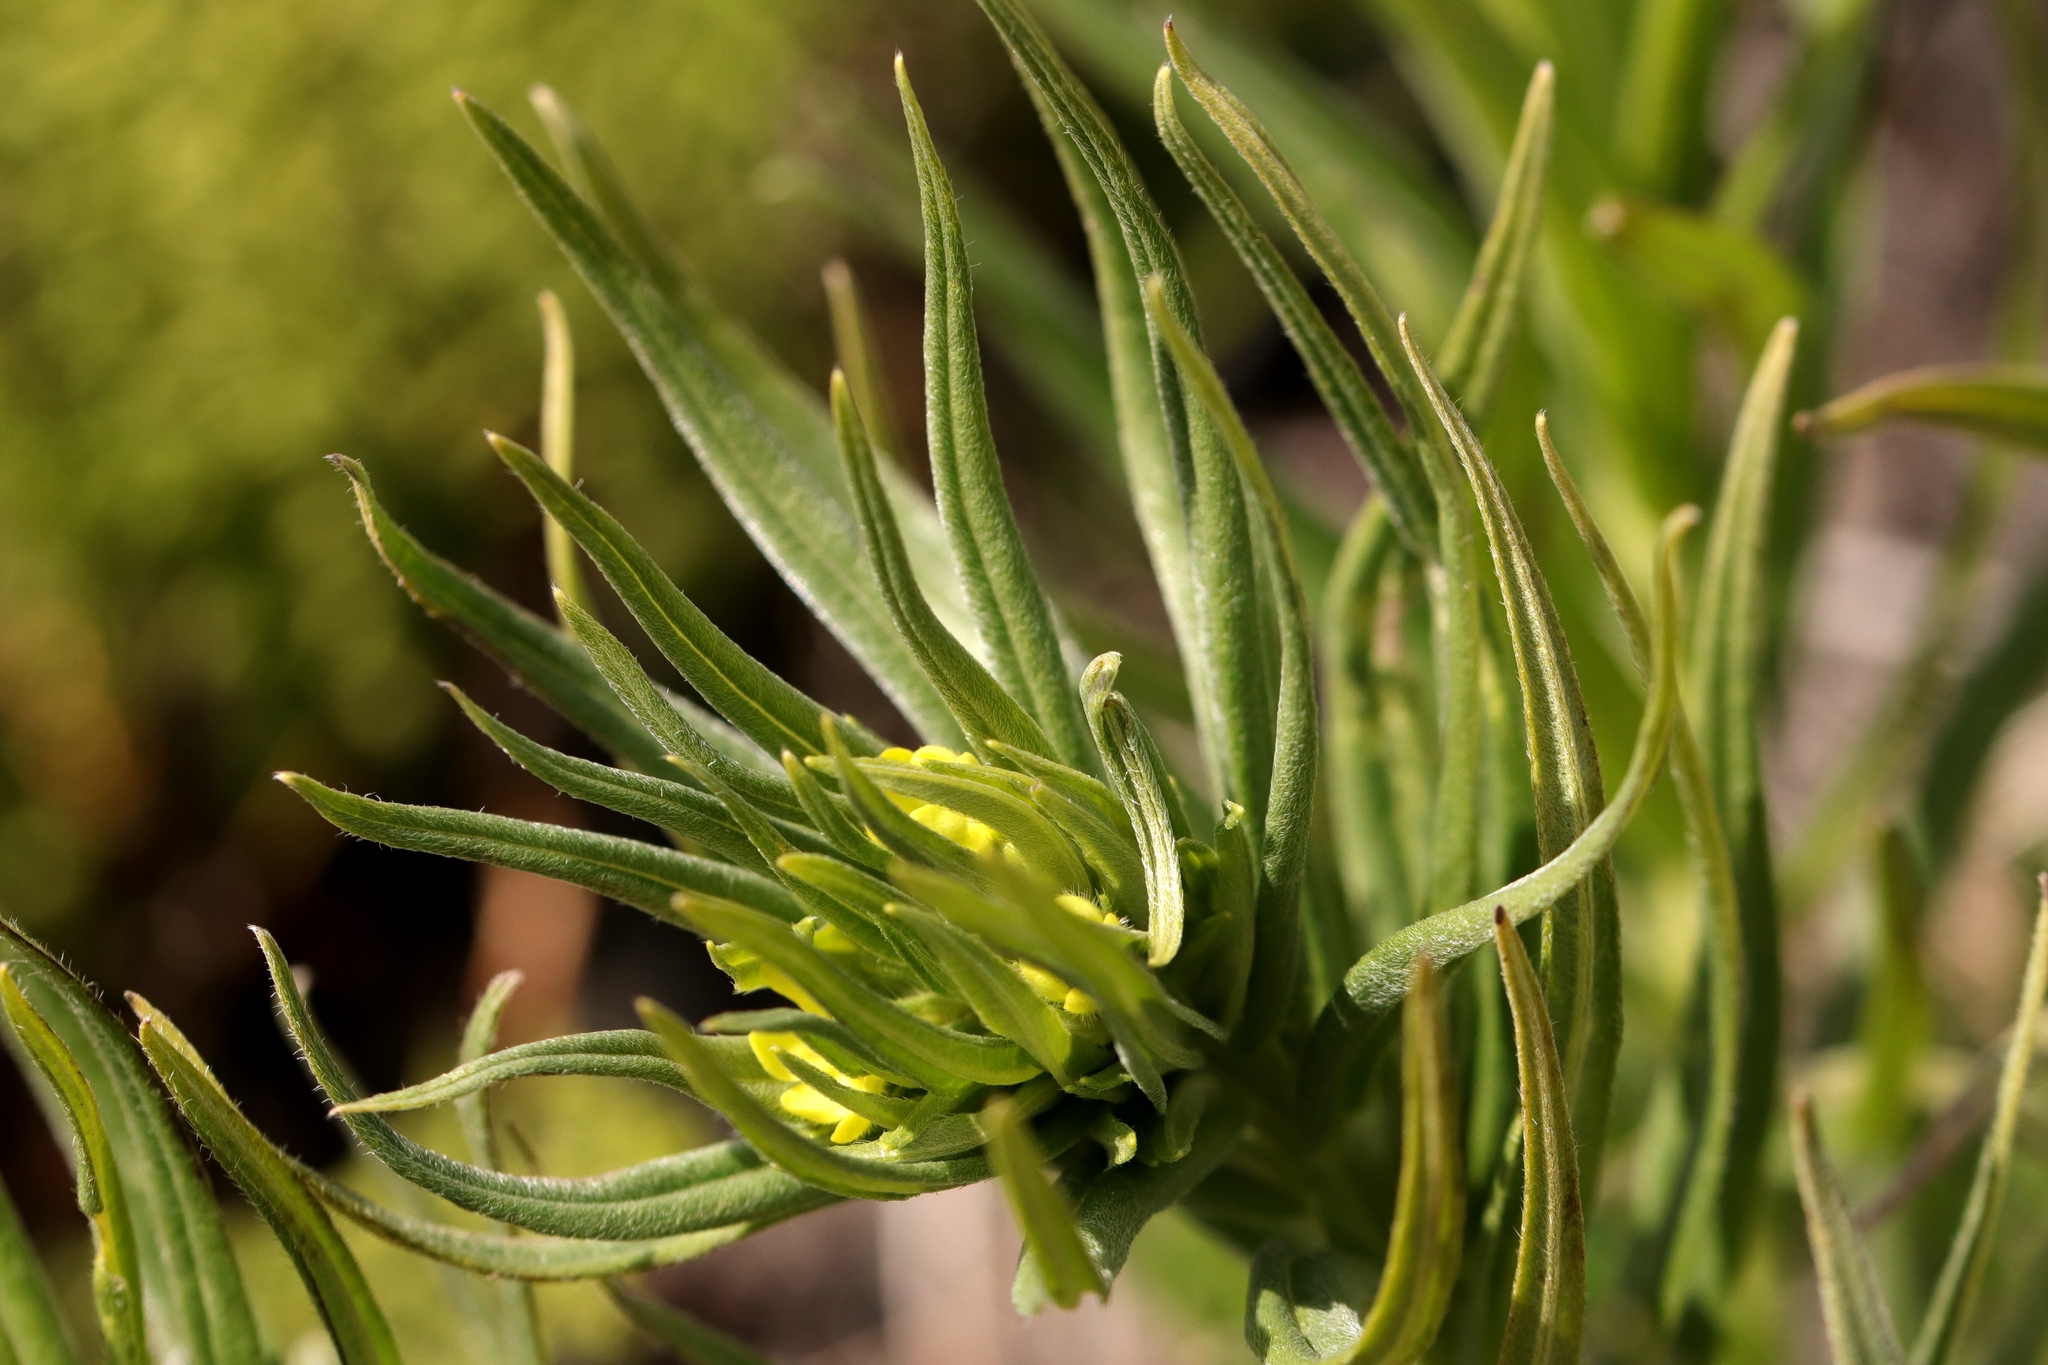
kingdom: Plantae
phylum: Tracheophyta
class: Magnoliopsida
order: Boraginales
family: Boraginaceae
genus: Lithospermum
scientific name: Lithospermum ruderale
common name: Western gromwell
